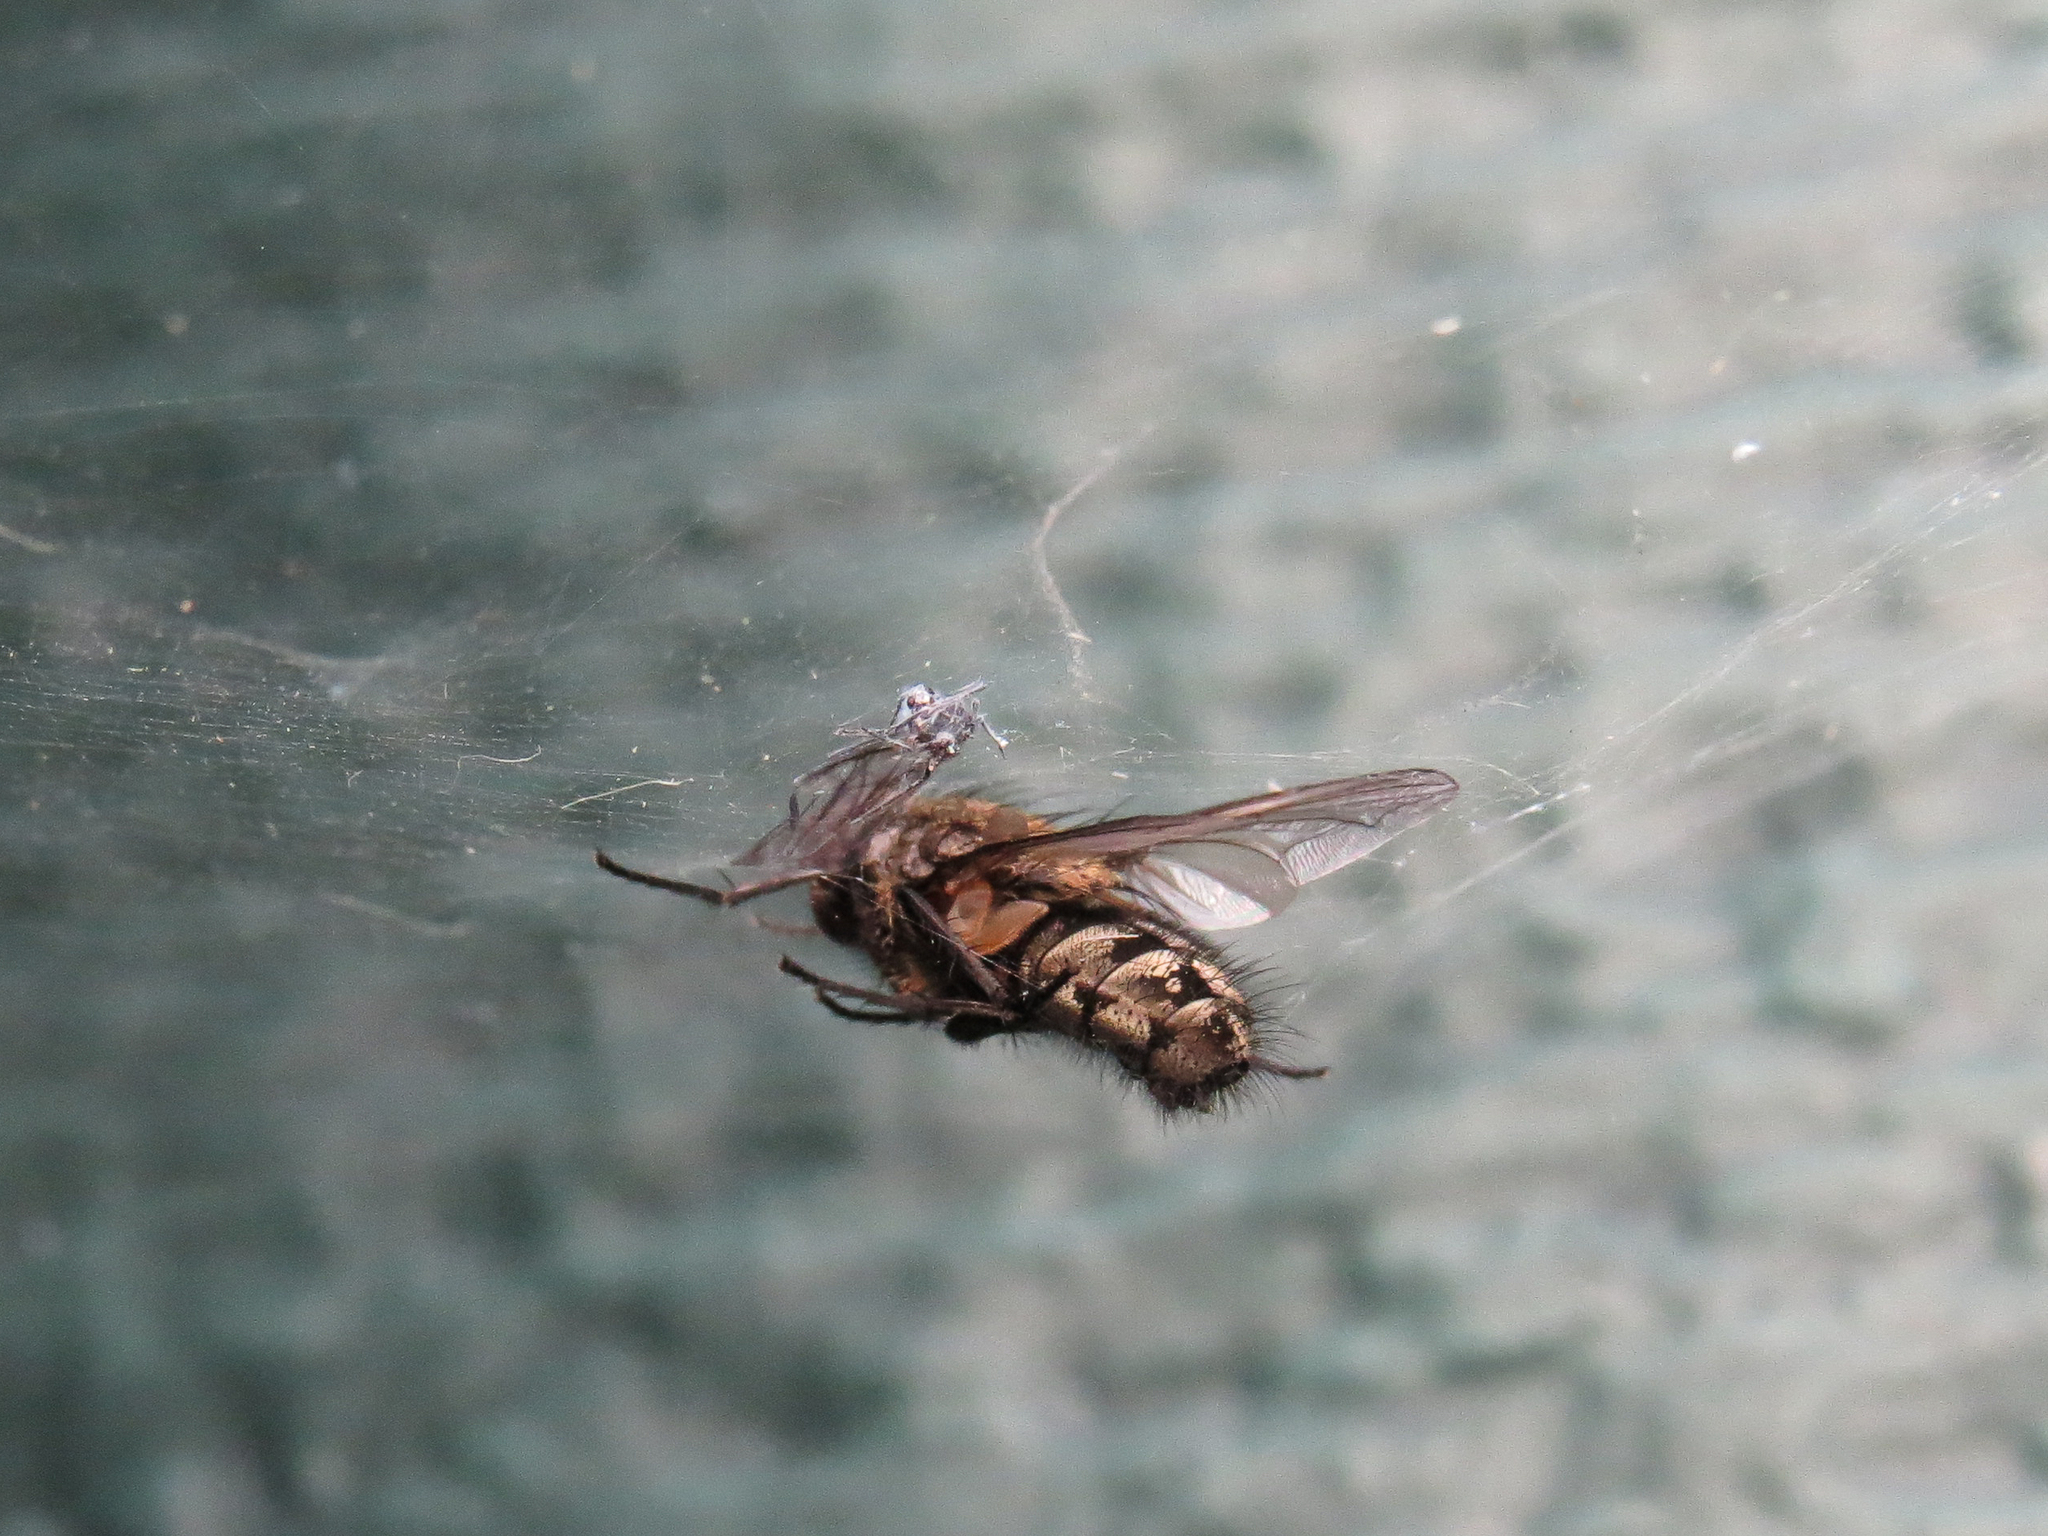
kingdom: Animalia
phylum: Arthropoda
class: Insecta
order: Diptera
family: Polleniidae
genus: Pollenia
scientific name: Pollenia
